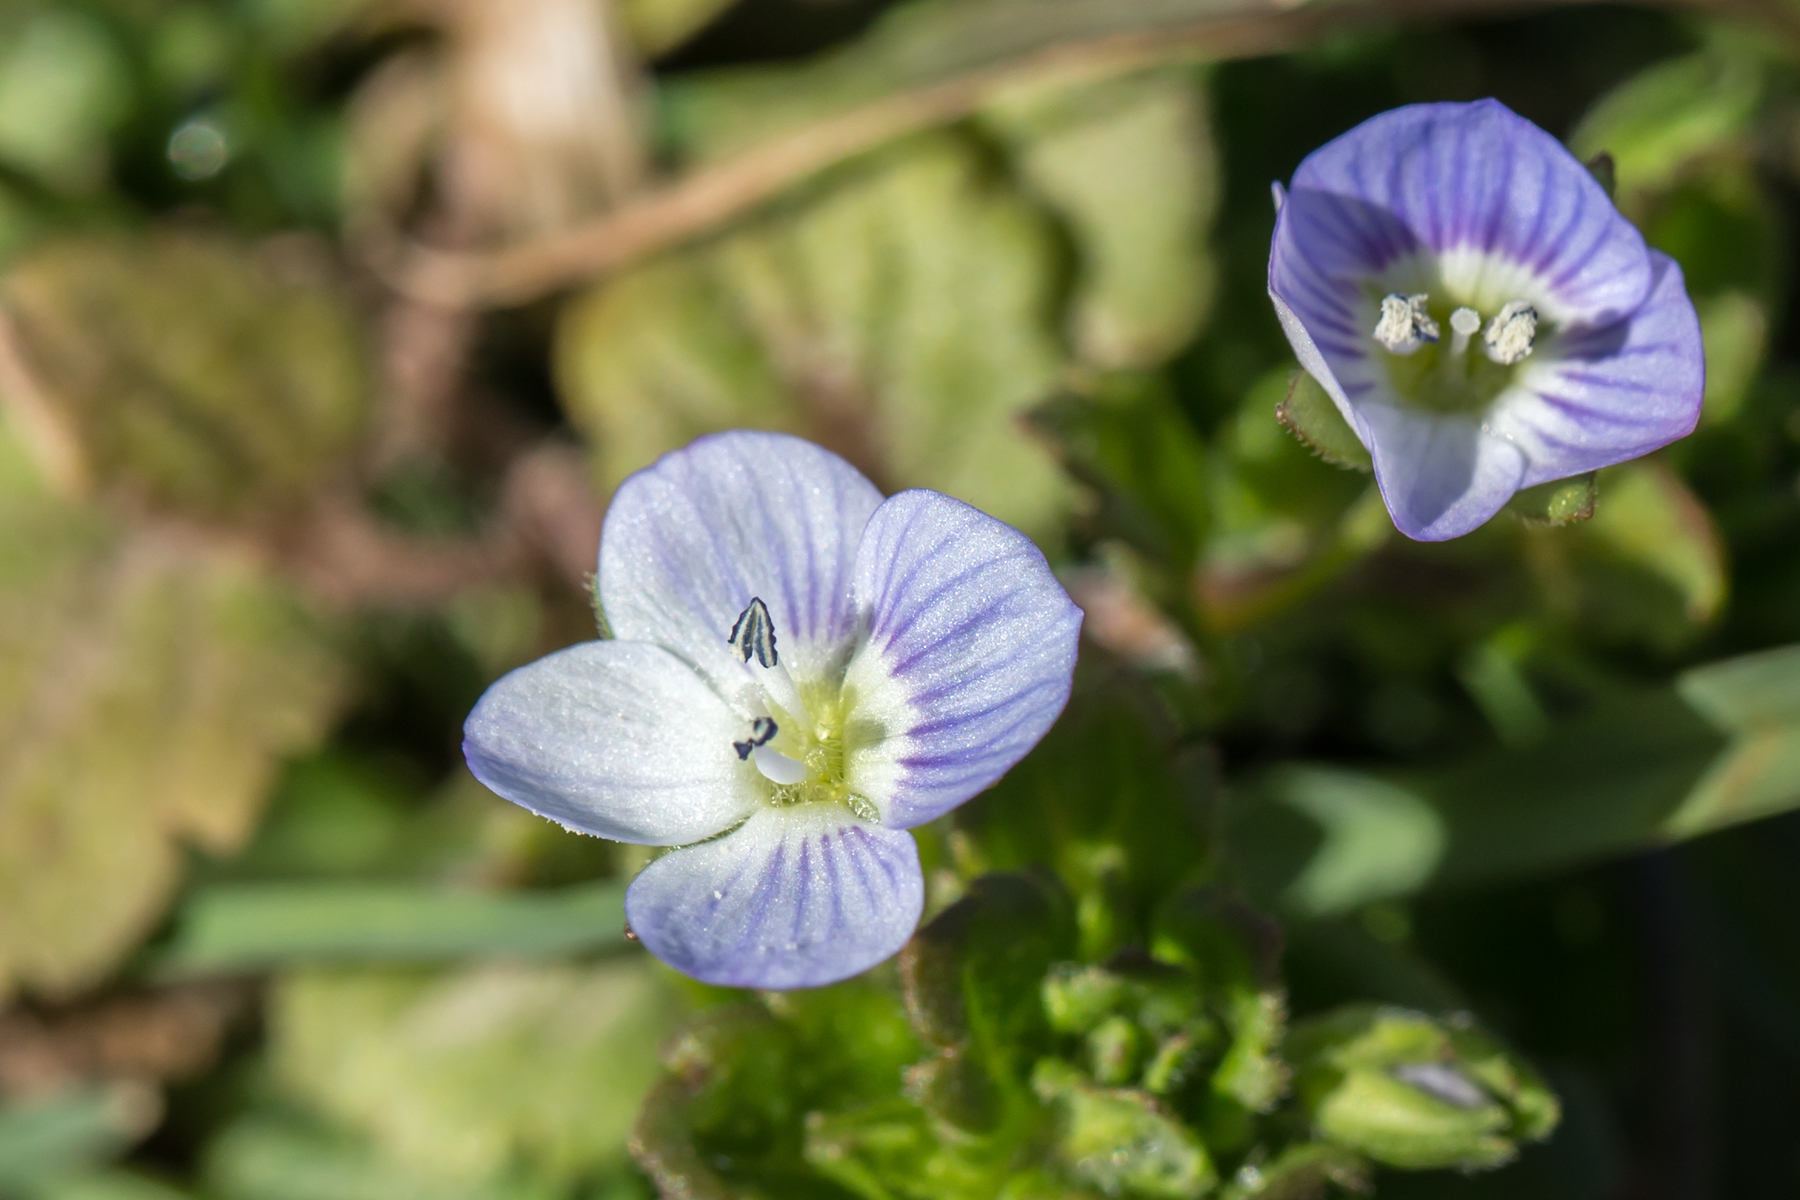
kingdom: Plantae
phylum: Tracheophyta
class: Magnoliopsida
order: Lamiales
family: Plantaginaceae
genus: Veronica
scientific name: Veronica persica
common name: Common field-speedwell
